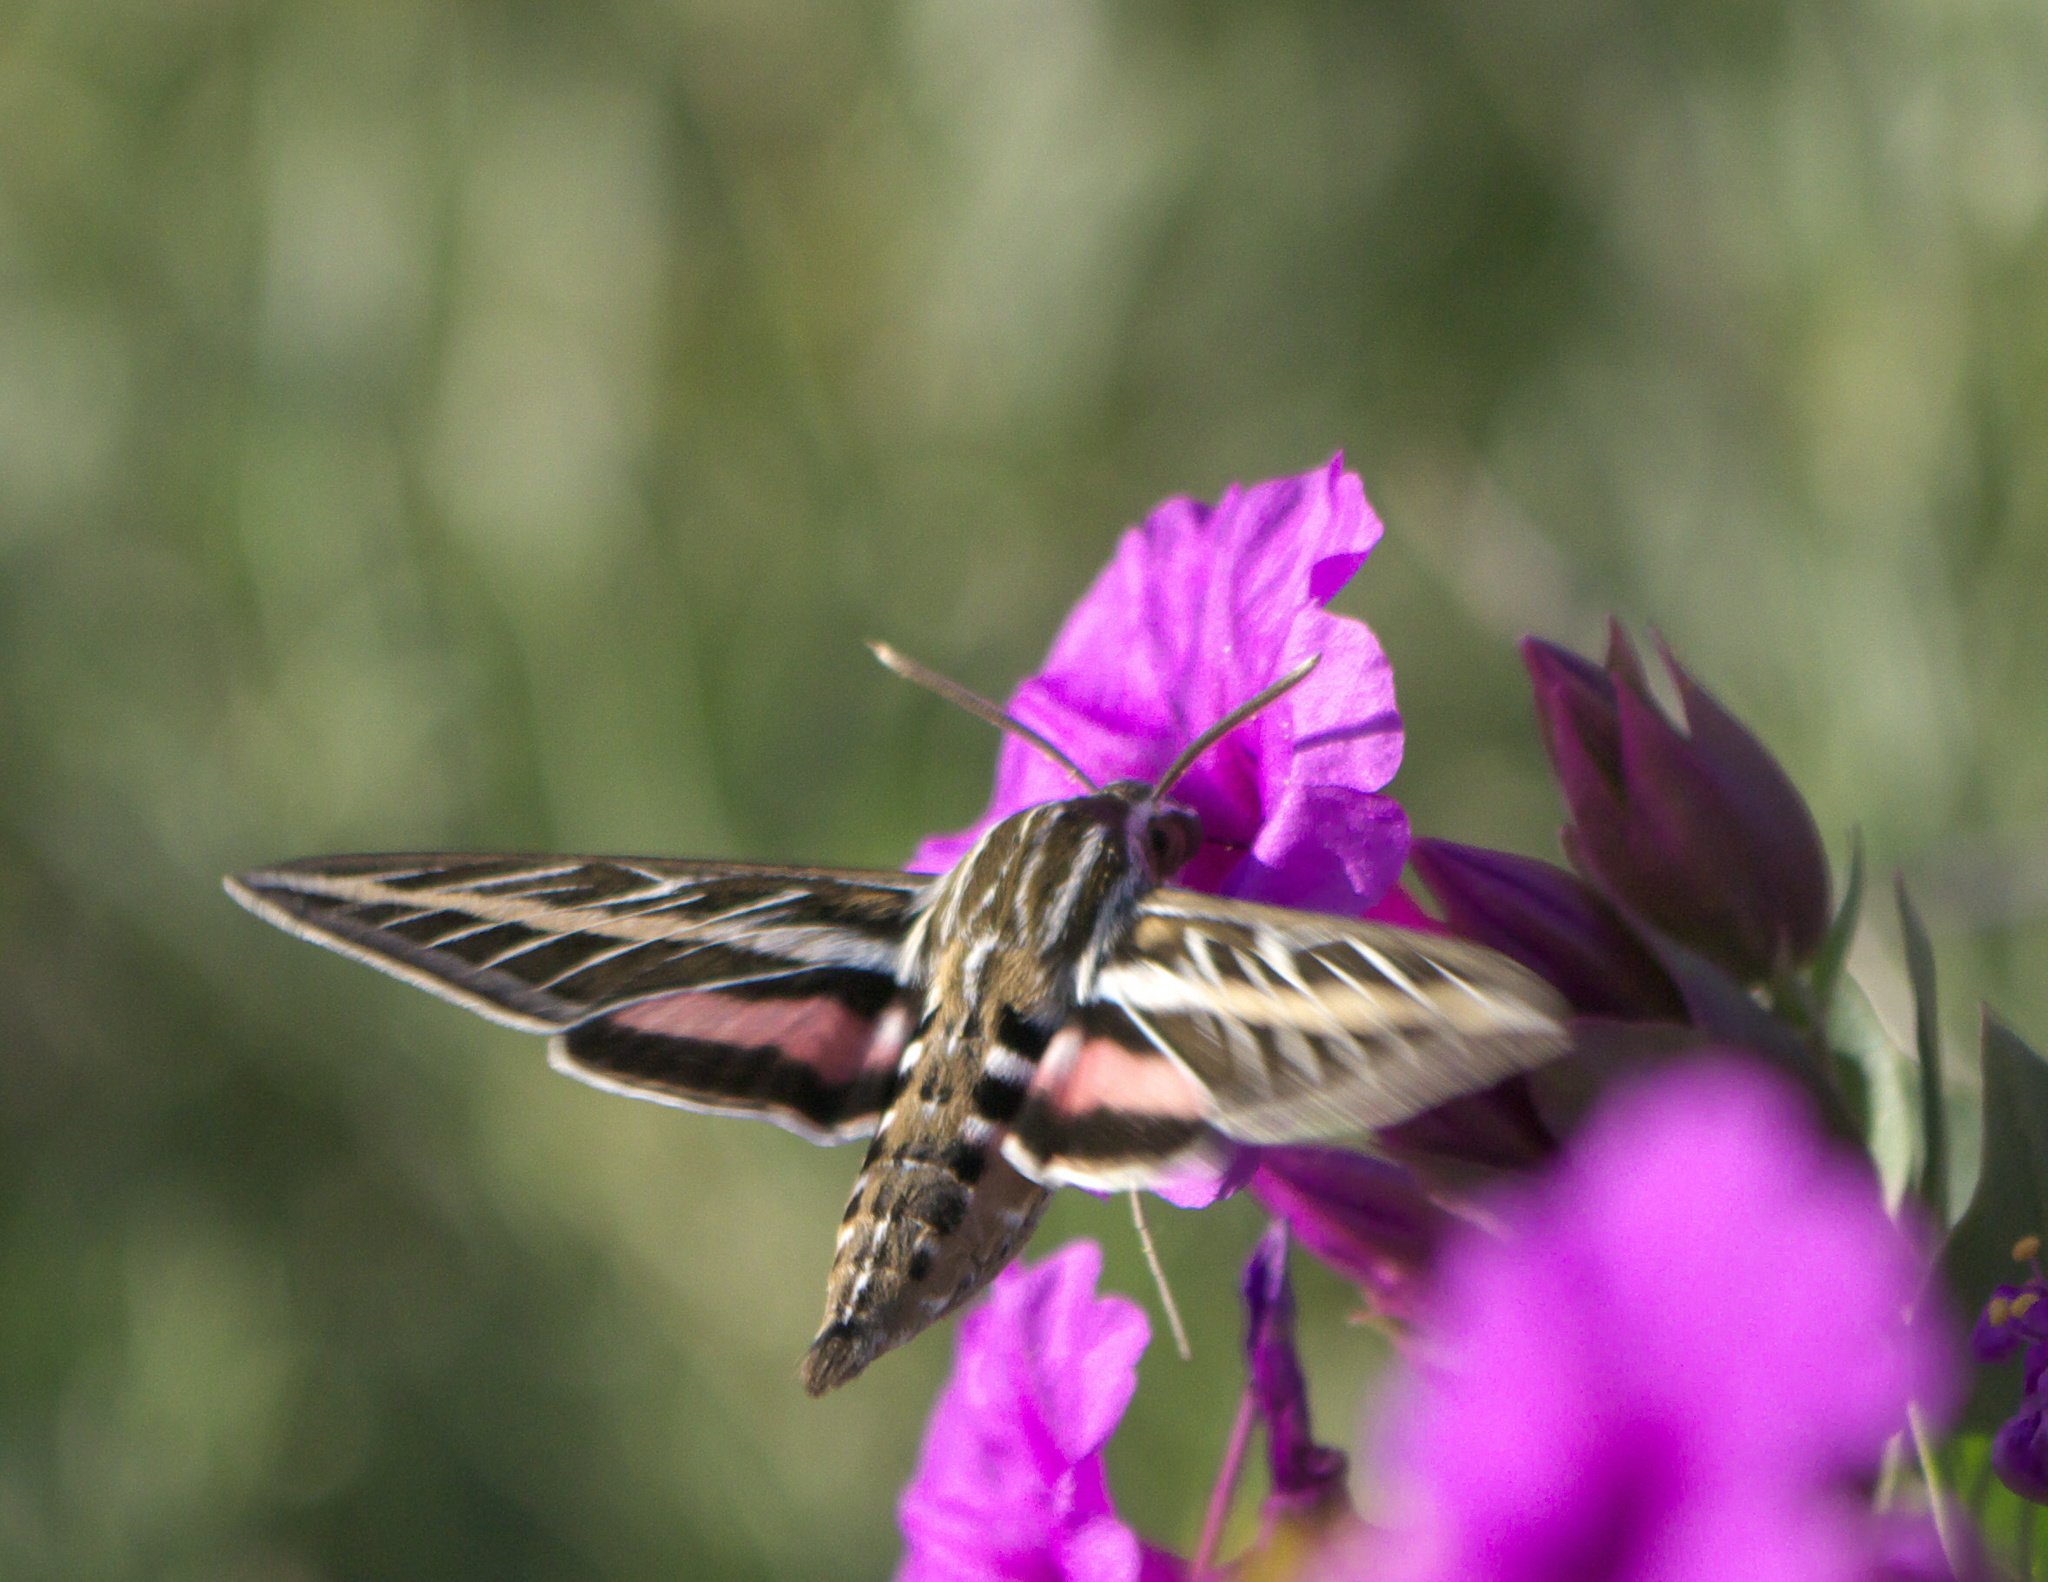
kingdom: Animalia
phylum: Arthropoda
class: Insecta
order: Lepidoptera
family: Sphingidae
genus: Hyles
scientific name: Hyles lineata
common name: White-lined sphinx
